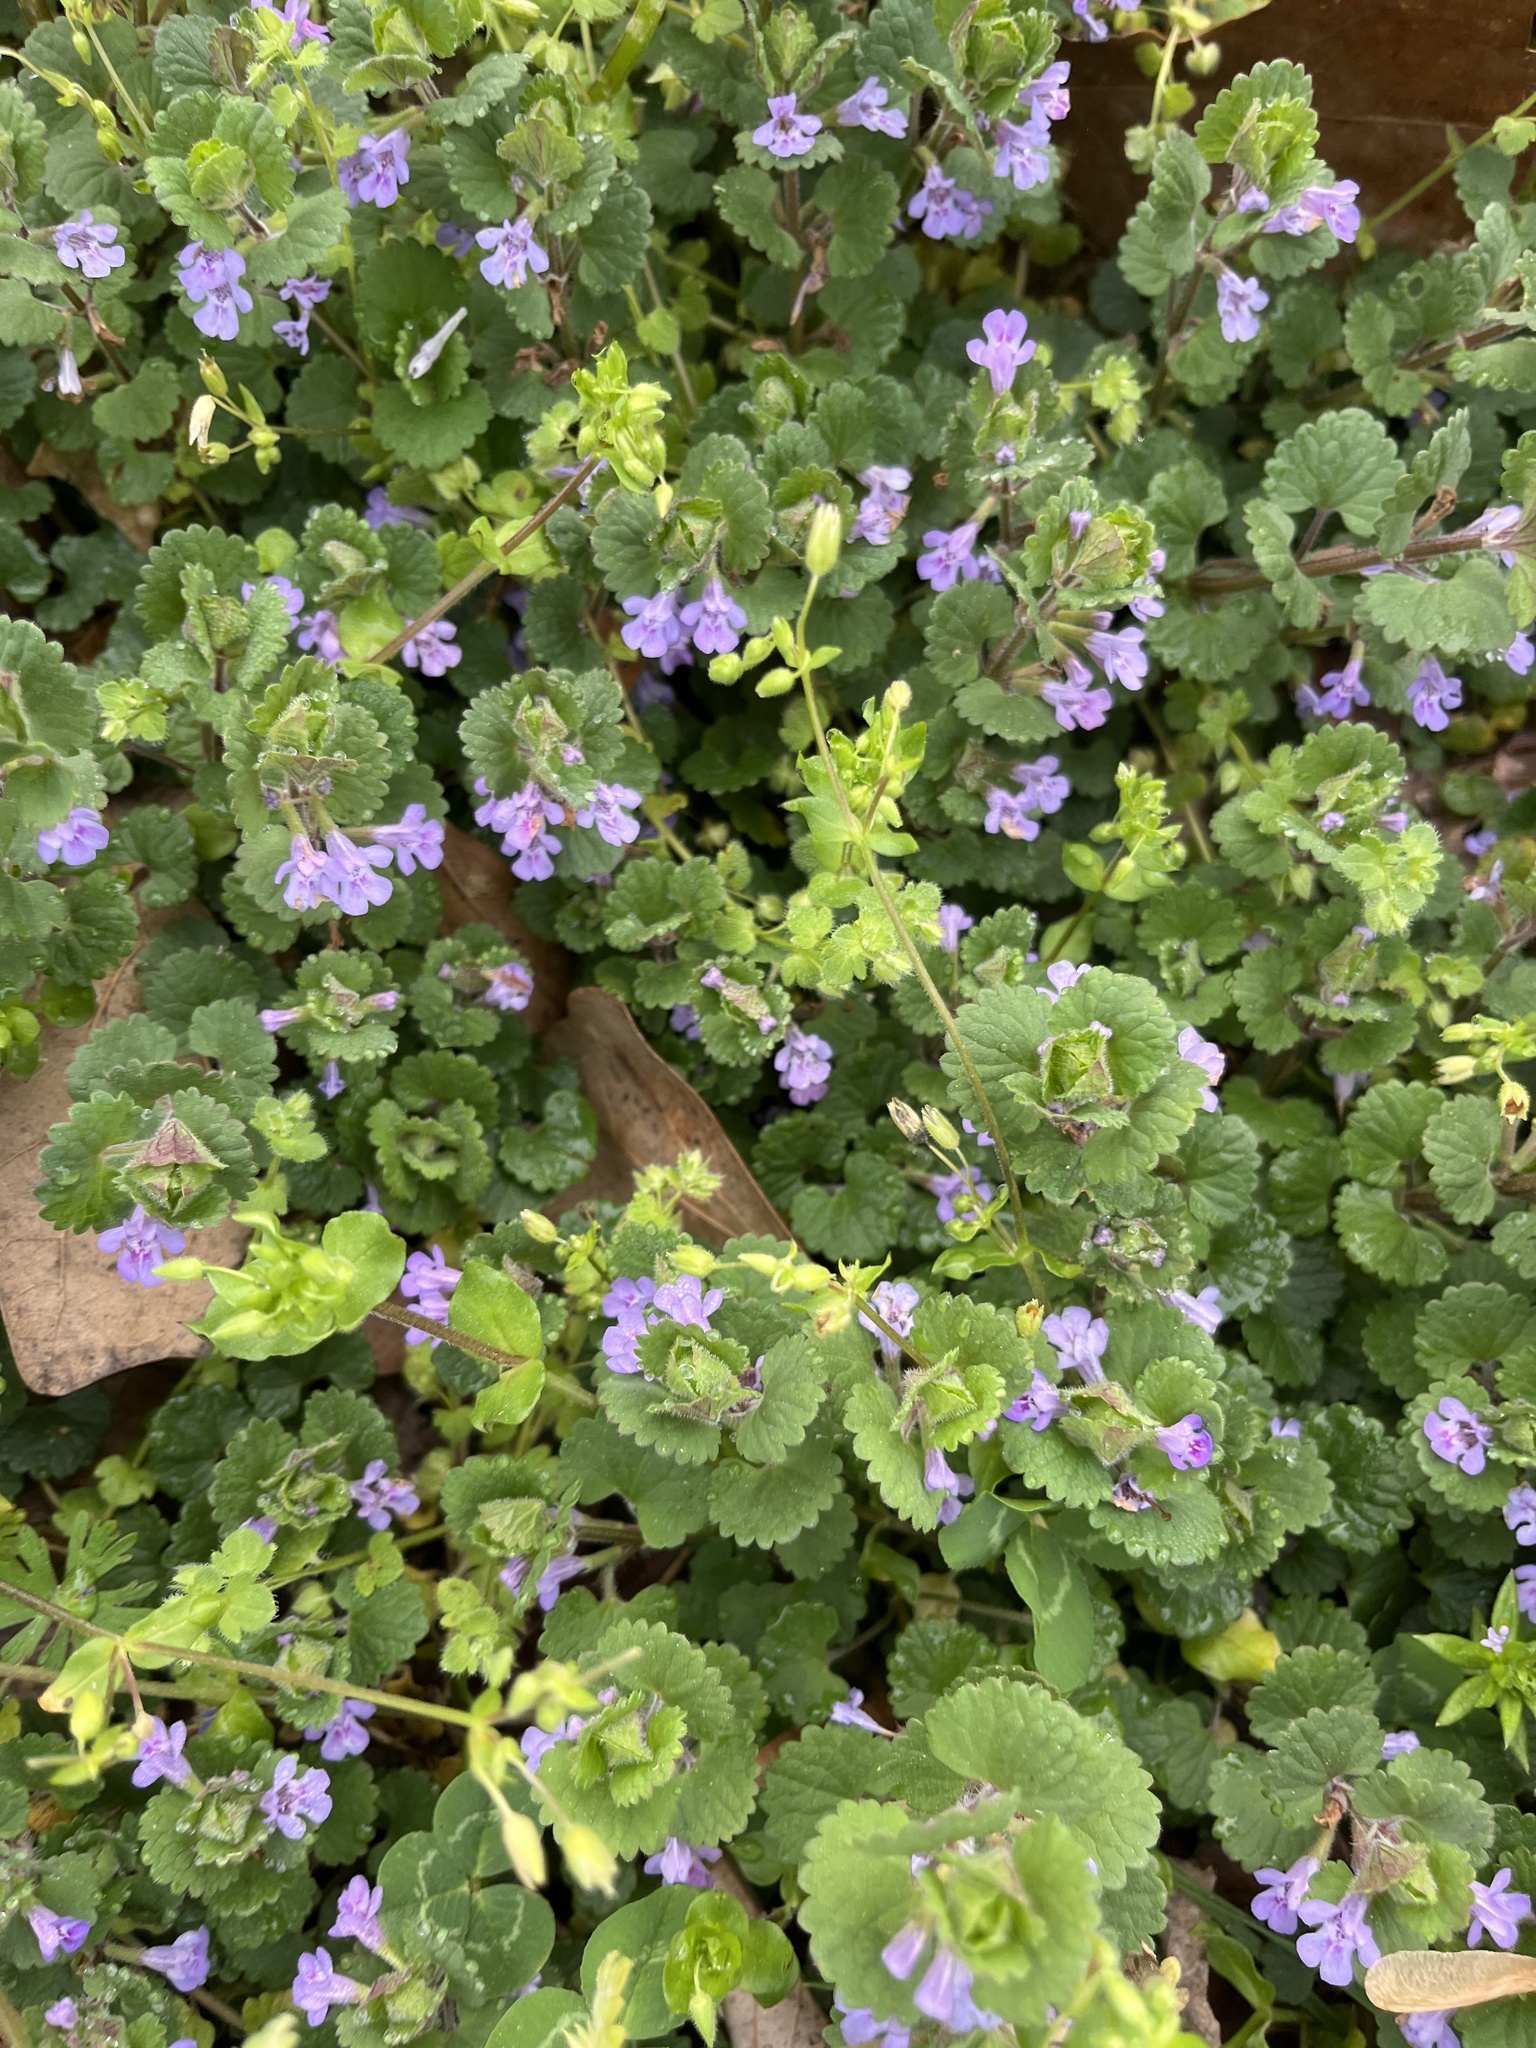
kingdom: Plantae
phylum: Tracheophyta
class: Magnoliopsida
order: Lamiales
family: Lamiaceae
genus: Glechoma
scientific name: Glechoma hederacea
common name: Ground ivy
